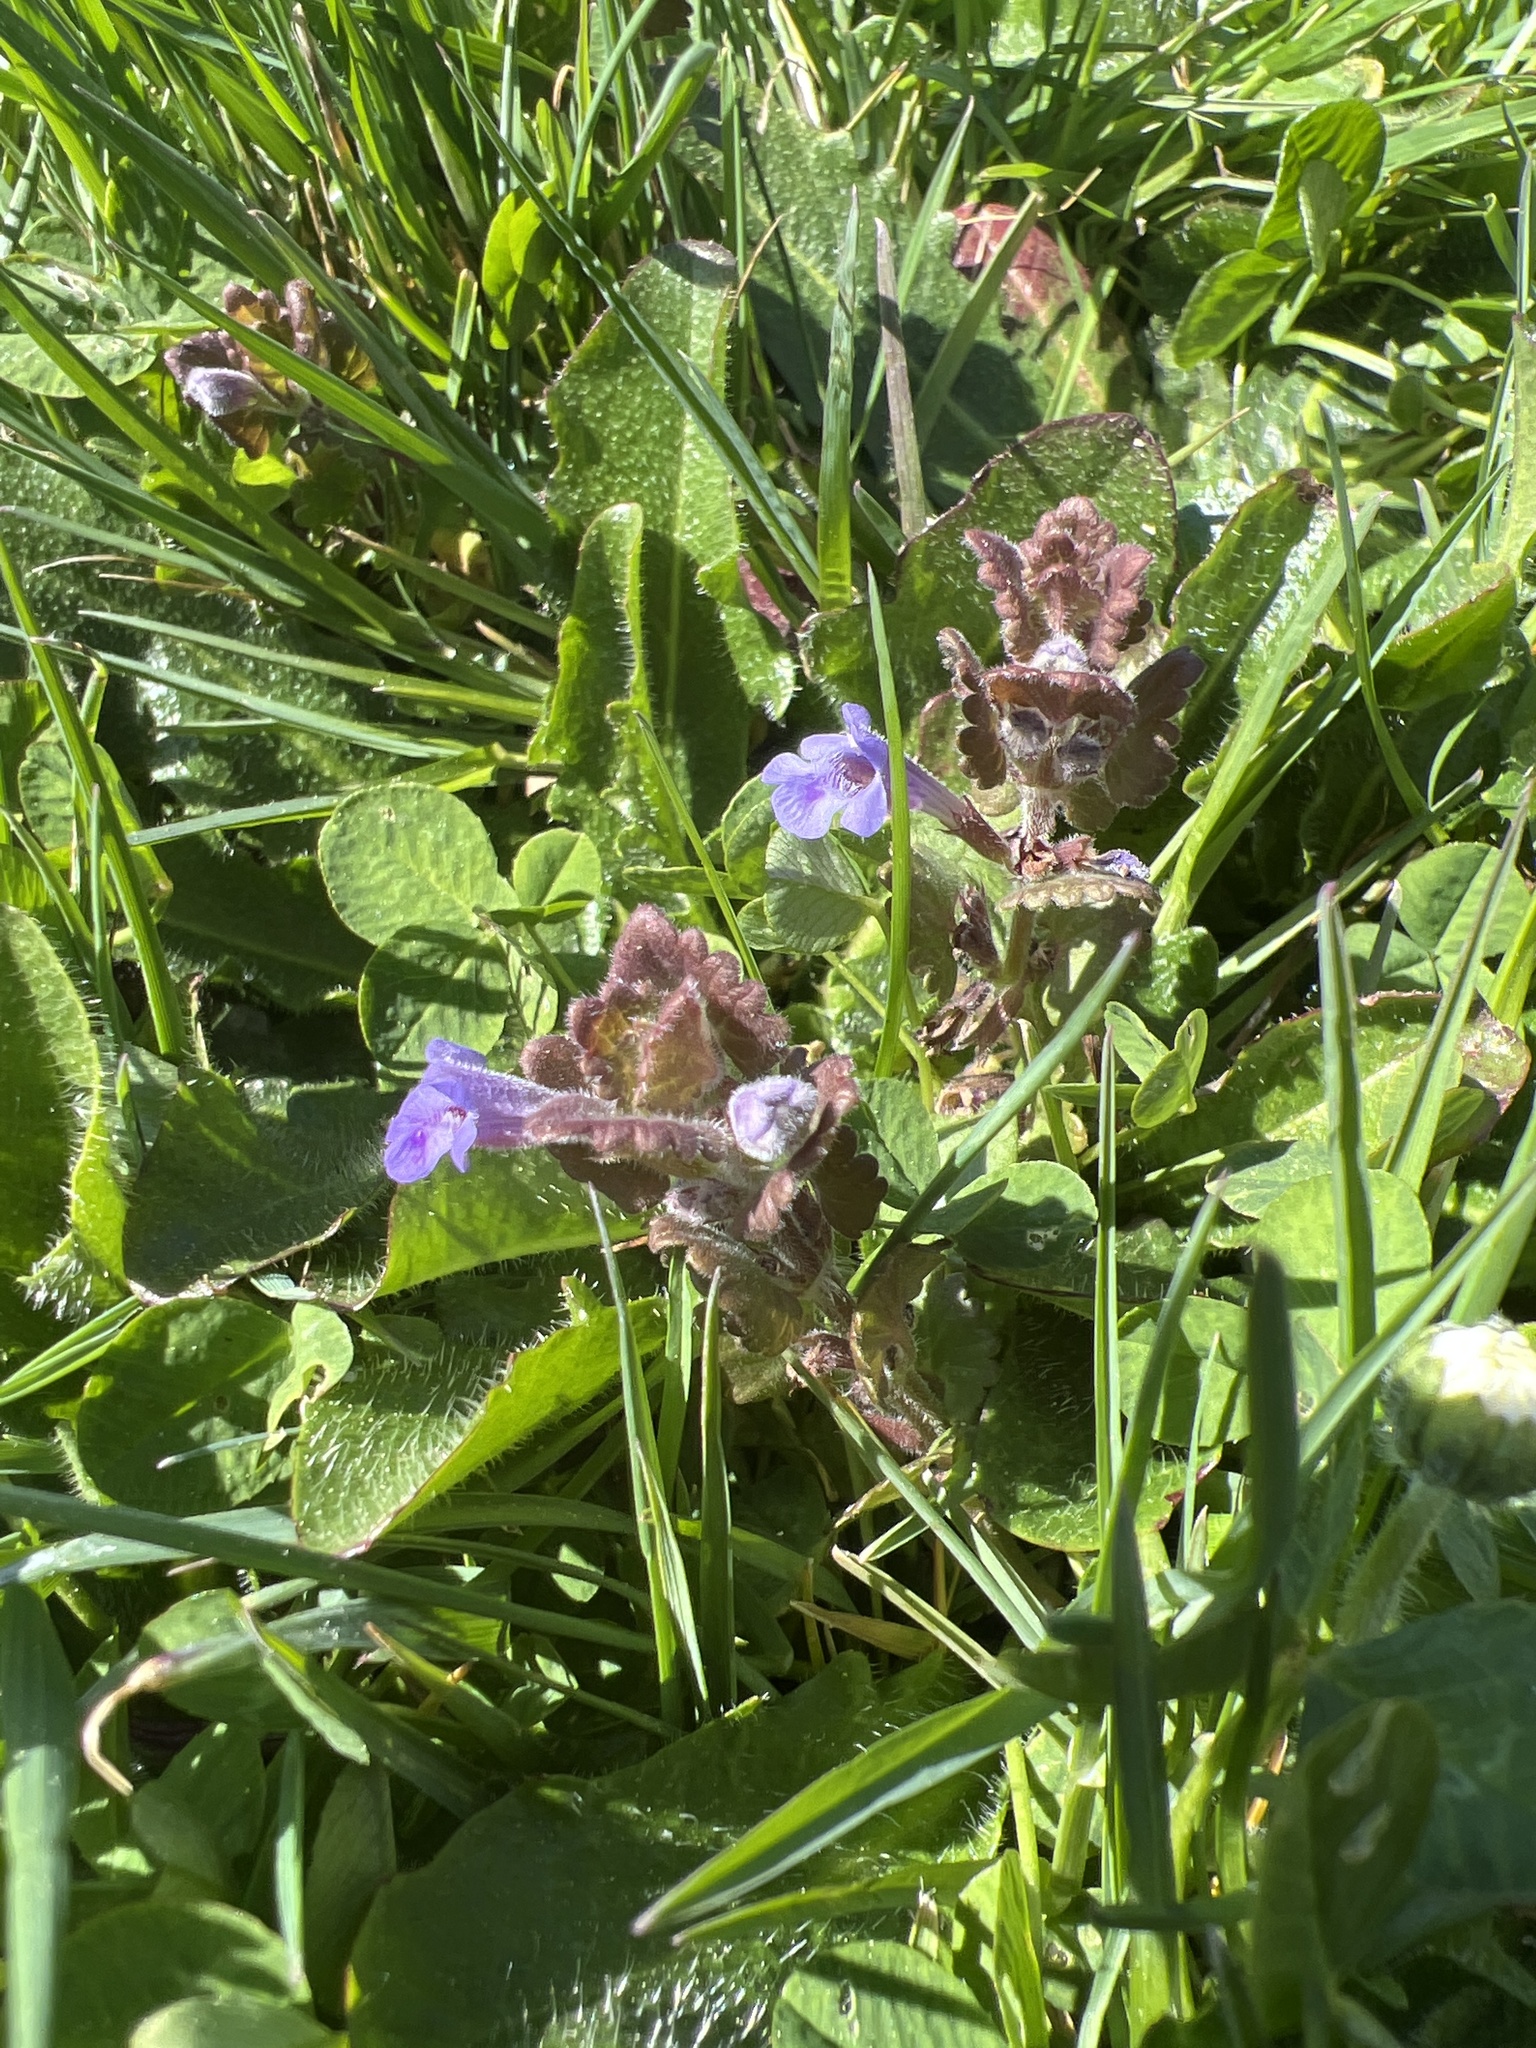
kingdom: Plantae
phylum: Tracheophyta
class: Magnoliopsida
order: Lamiales
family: Lamiaceae
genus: Glechoma
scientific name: Glechoma hederacea
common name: Ground ivy
